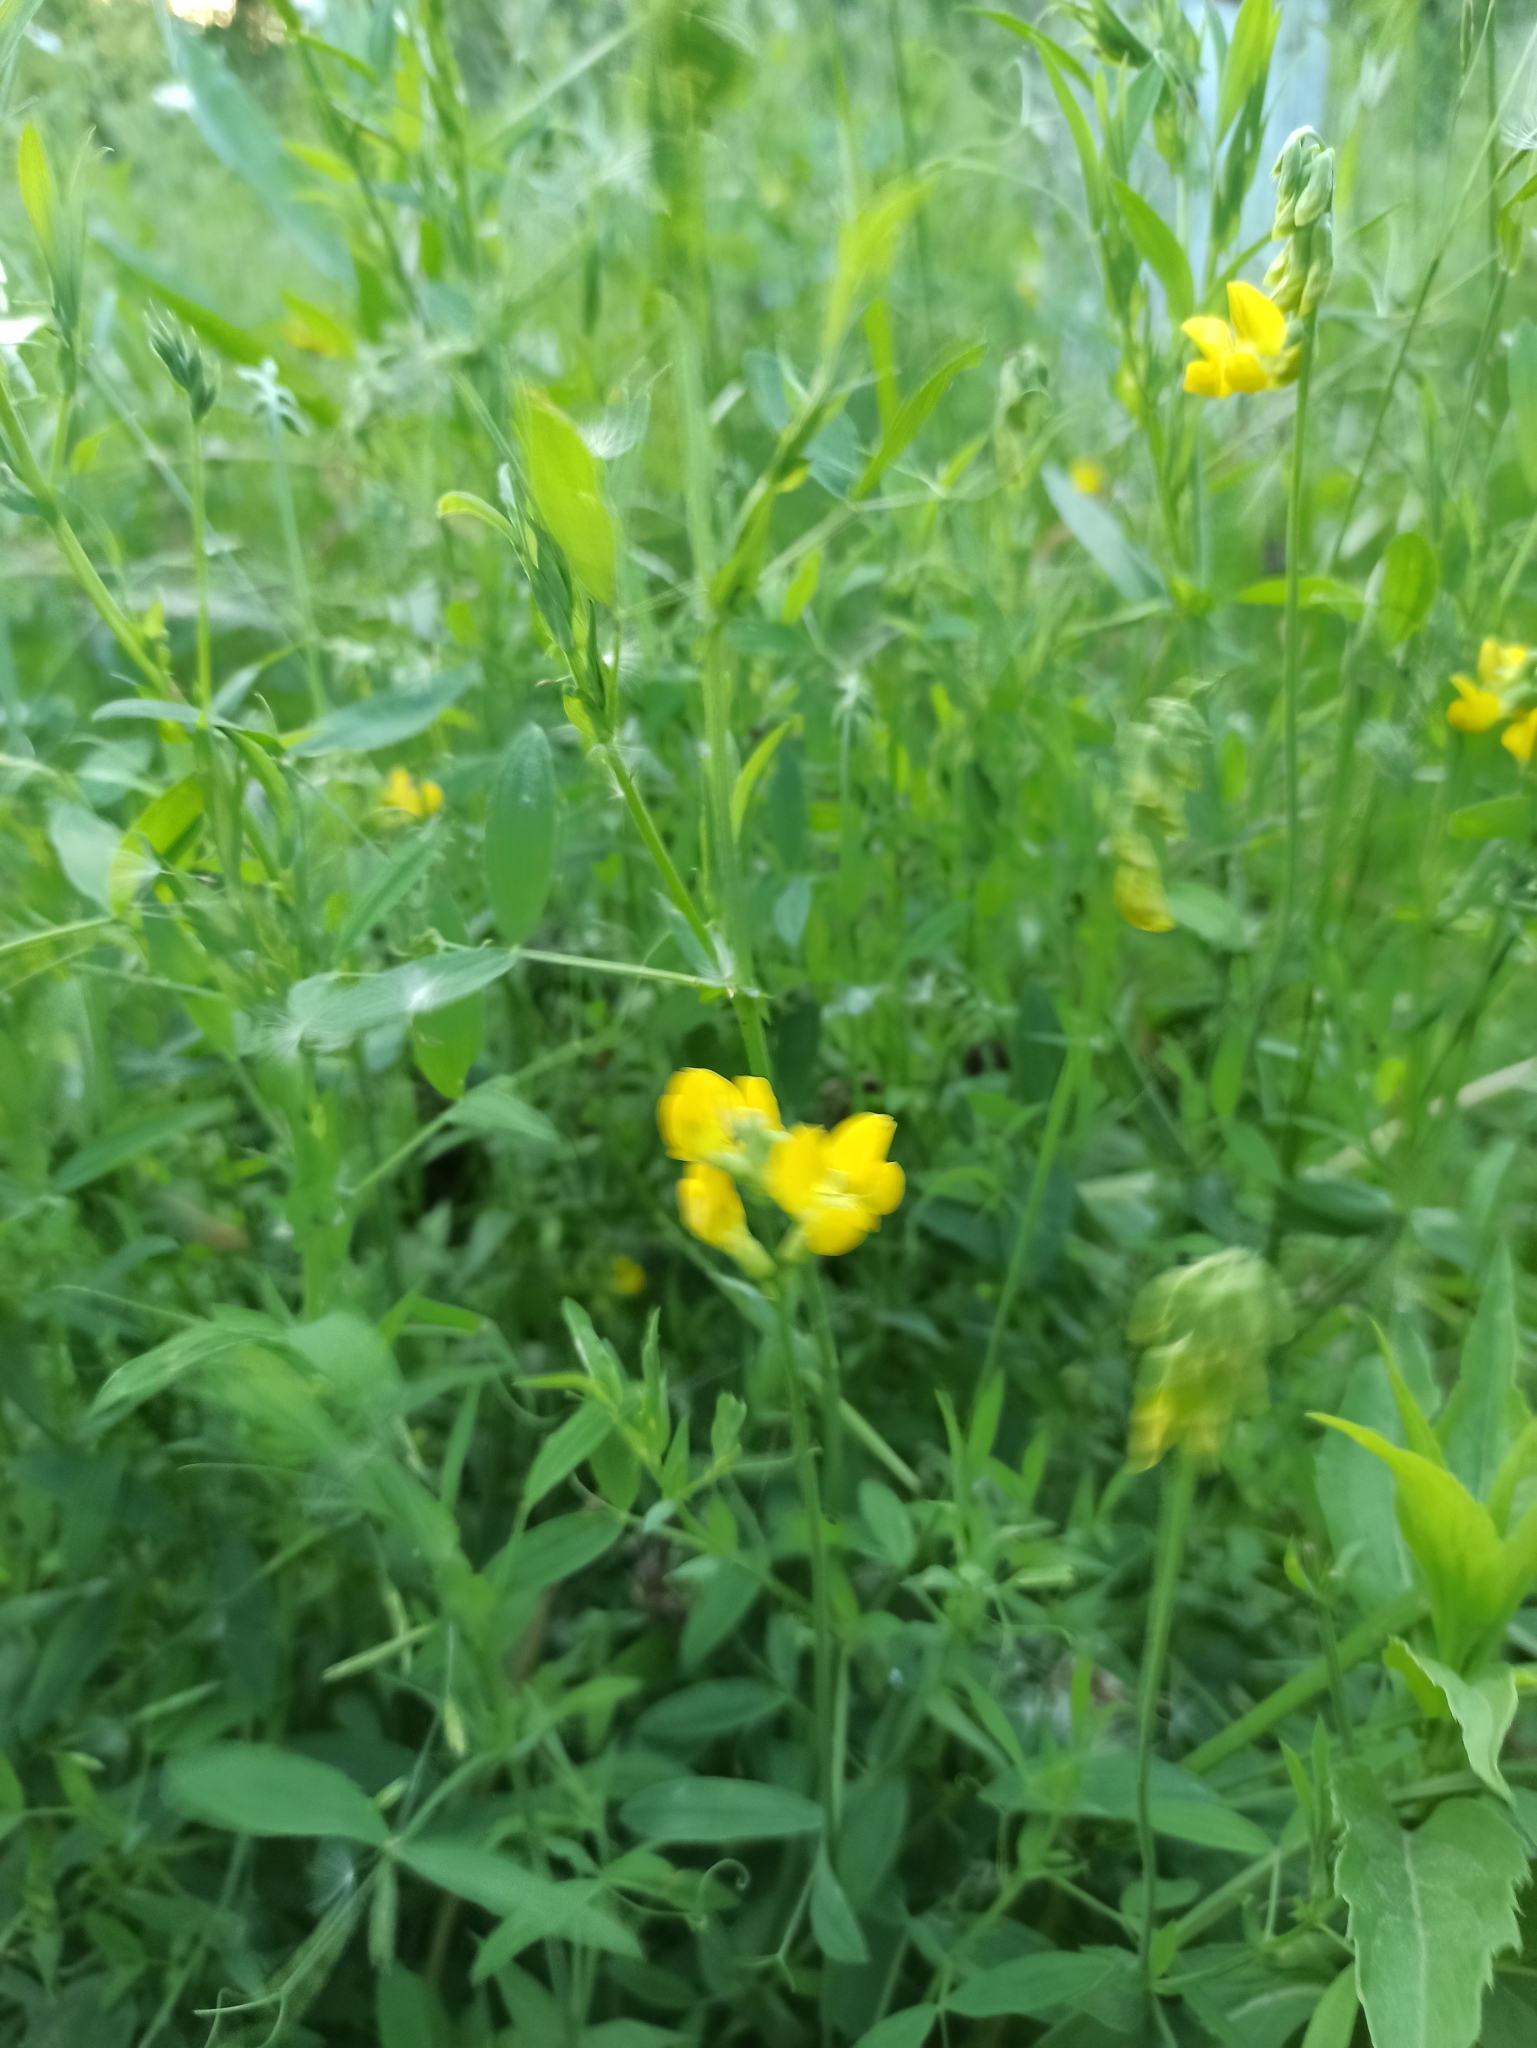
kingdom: Plantae
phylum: Tracheophyta
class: Magnoliopsida
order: Fabales
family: Fabaceae
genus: Lathyrus
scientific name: Lathyrus pratensis
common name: Meadow vetchling
